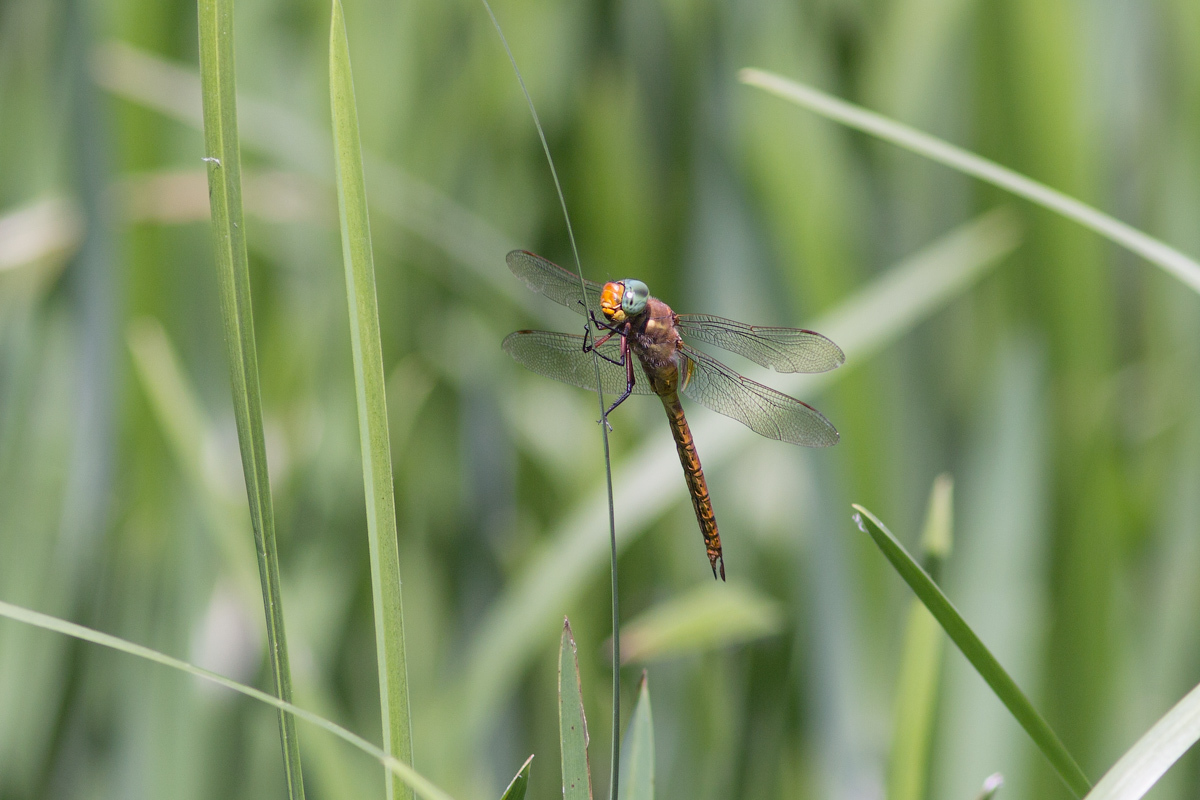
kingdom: Animalia
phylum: Arthropoda
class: Insecta
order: Odonata
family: Aeshnidae
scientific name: Aeshnidae
